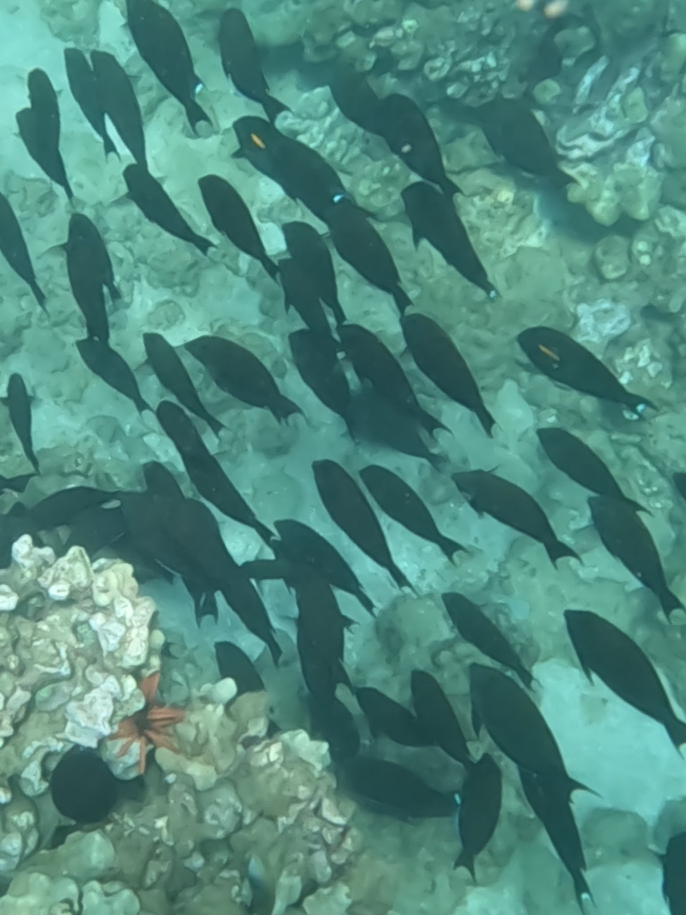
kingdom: Animalia
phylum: Chordata
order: Perciformes
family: Acanthuridae
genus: Acanthurus
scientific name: Acanthurus olivaceus
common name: Gendarme fish
